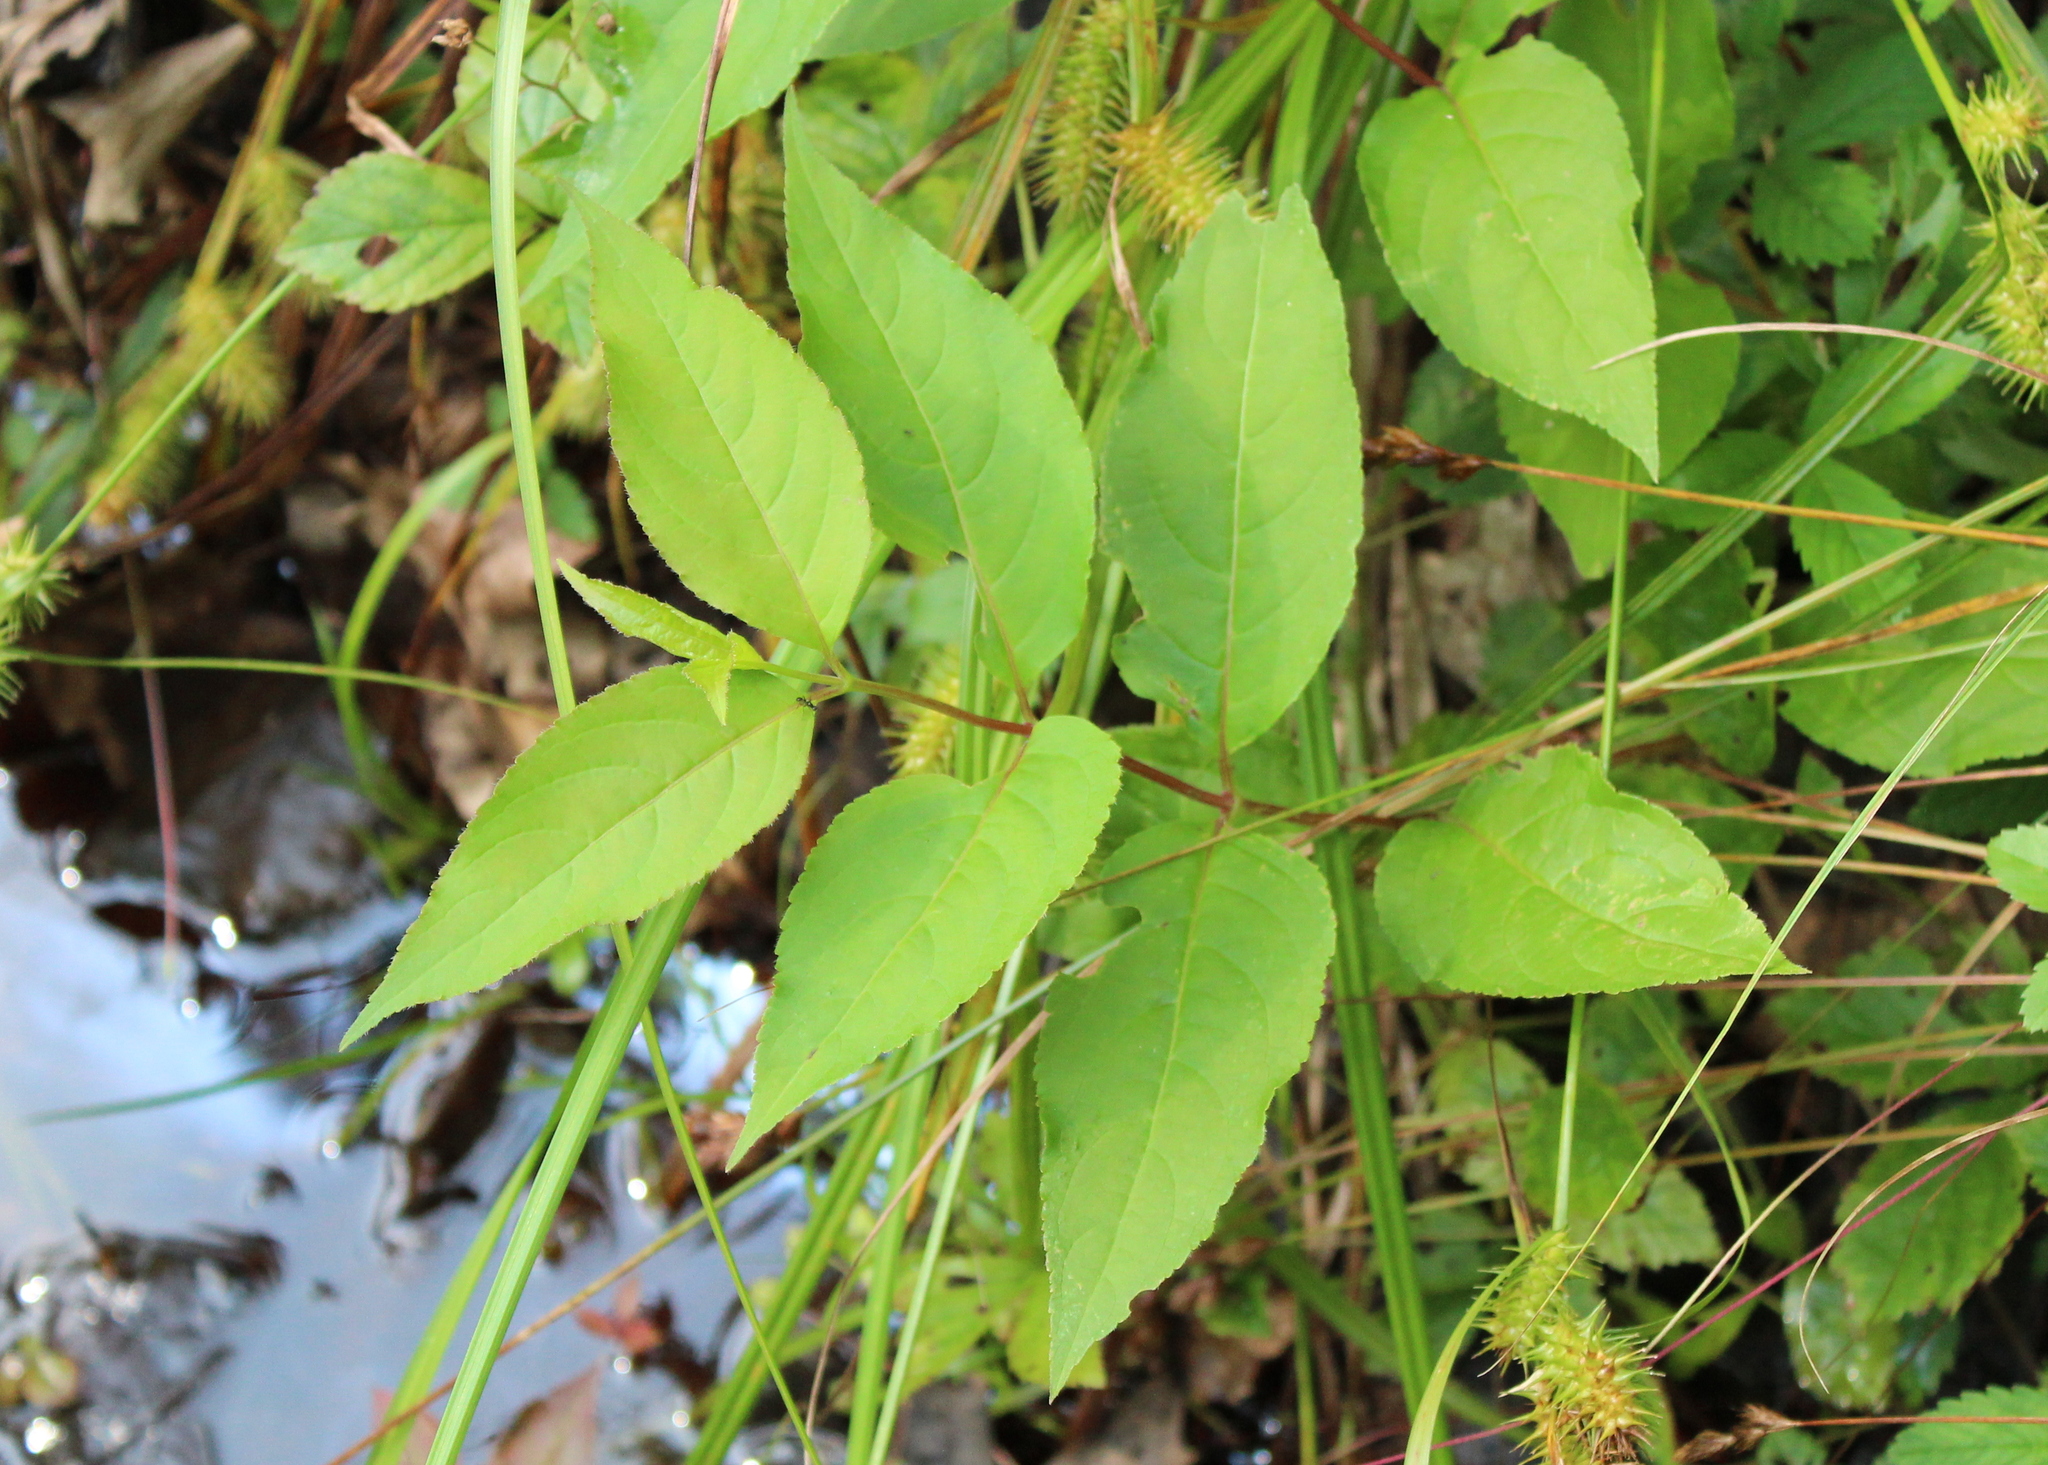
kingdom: Plantae
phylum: Tracheophyta
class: Magnoliopsida
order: Dipsacales
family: Caprifoliaceae
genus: Diervilla
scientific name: Diervilla lonicera
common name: Bush-honeysuckle
